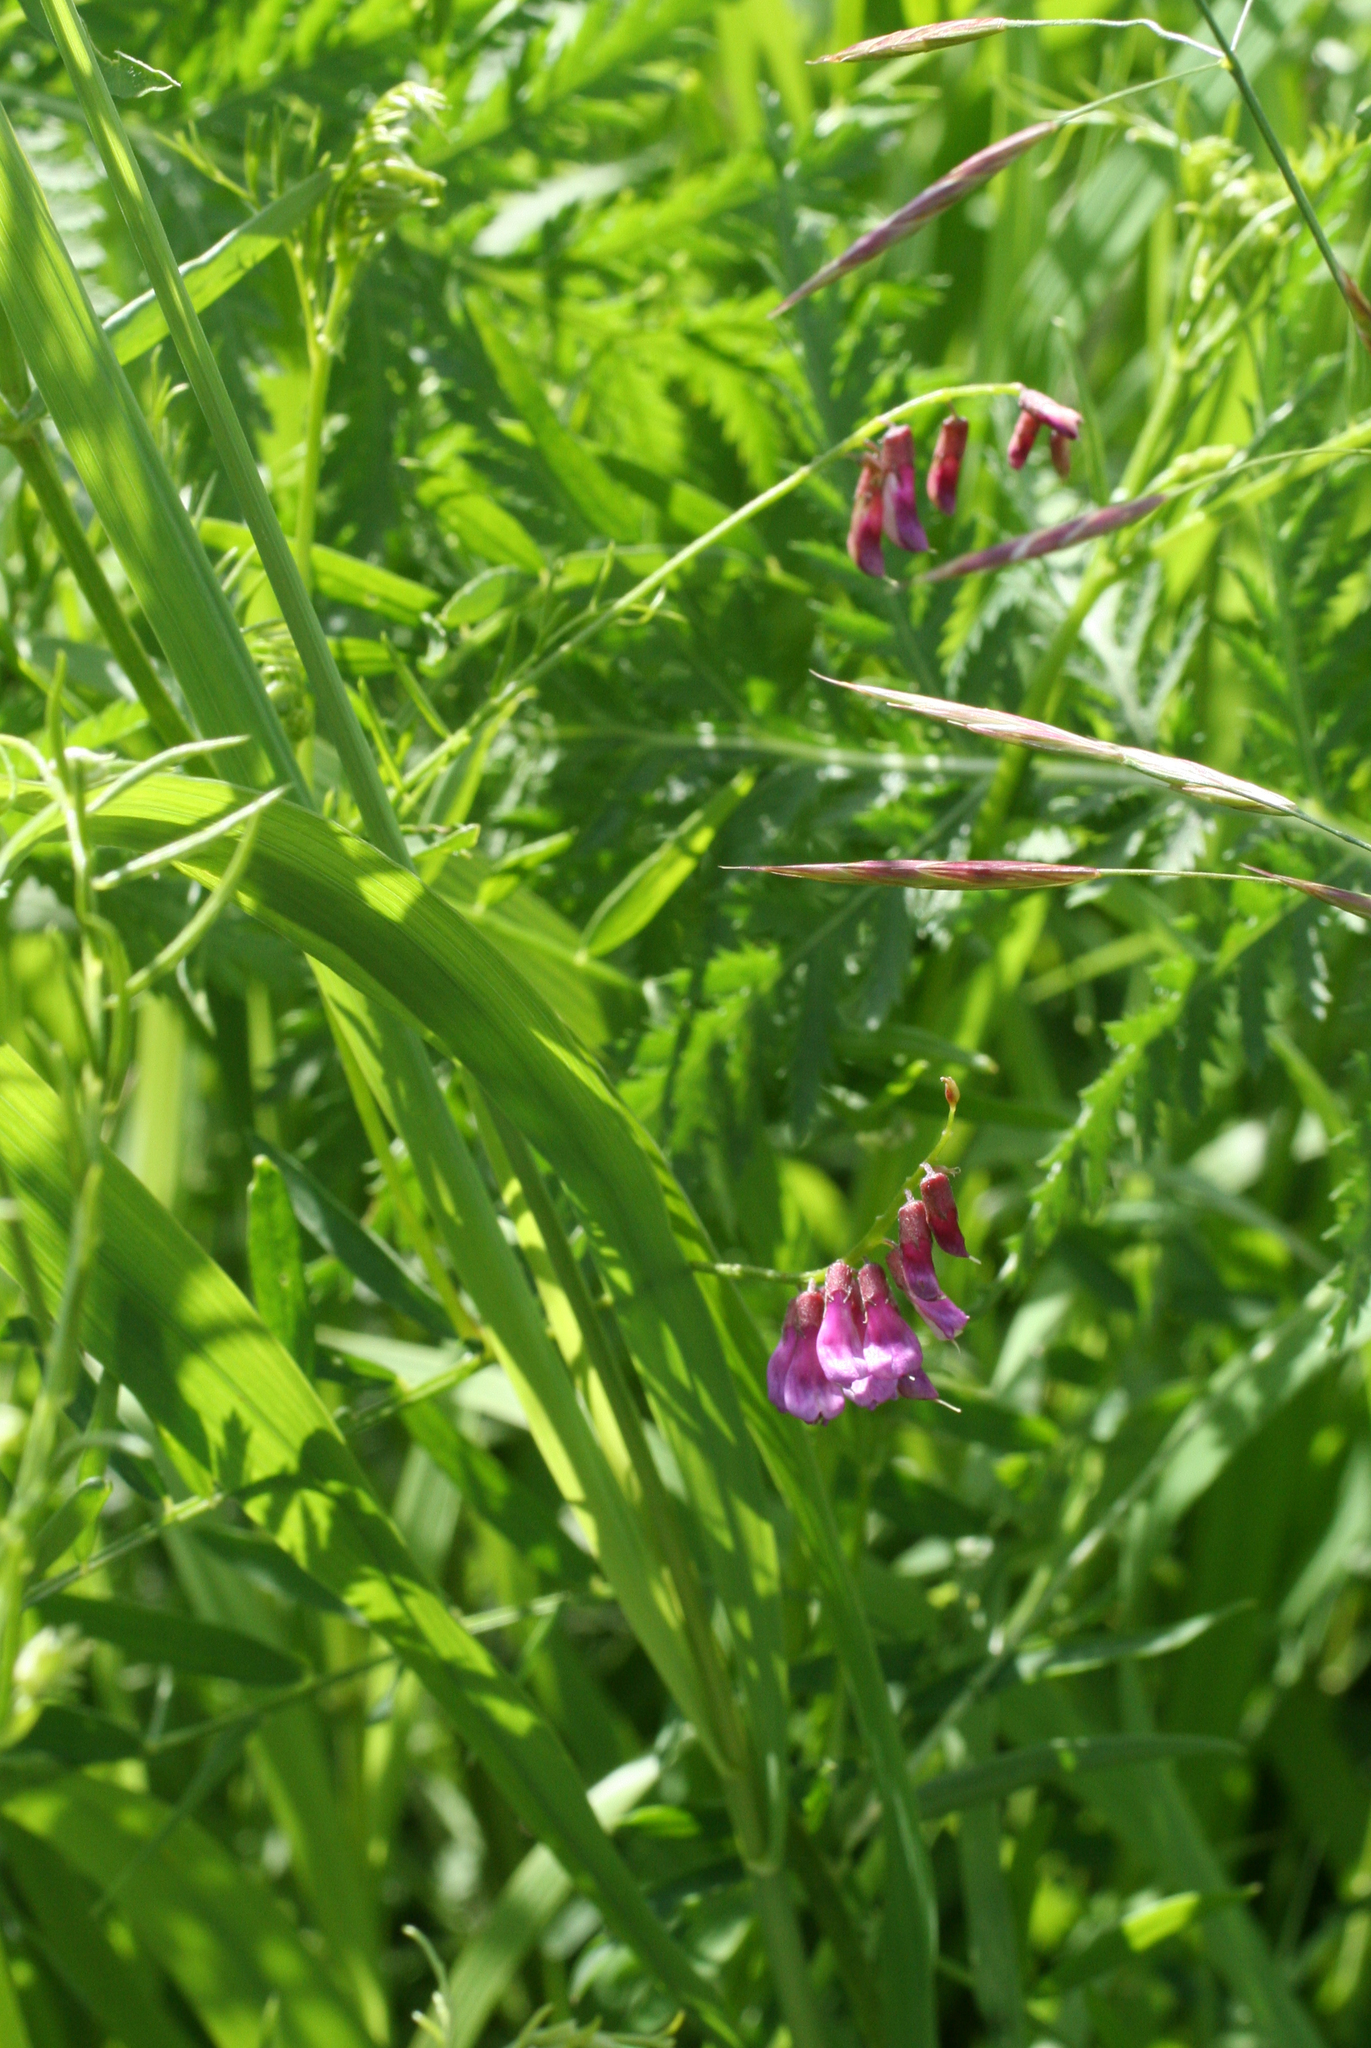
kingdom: Plantae
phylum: Tracheophyta
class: Magnoliopsida
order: Fabales
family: Fabaceae
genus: Vicia
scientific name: Vicia megalotropis
